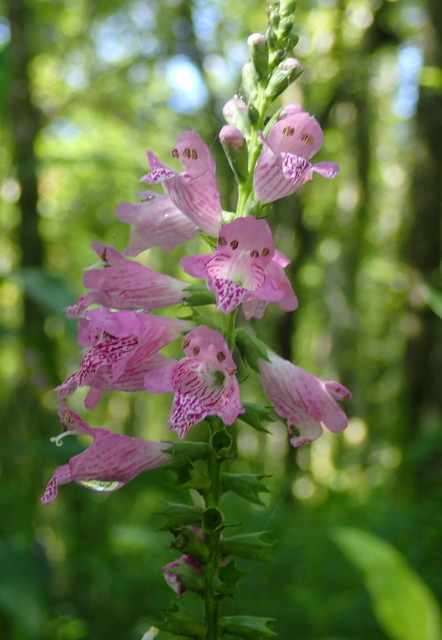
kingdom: Plantae
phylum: Tracheophyta
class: Magnoliopsida
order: Lamiales
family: Lamiaceae
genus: Physostegia
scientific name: Physostegia leptophylla
